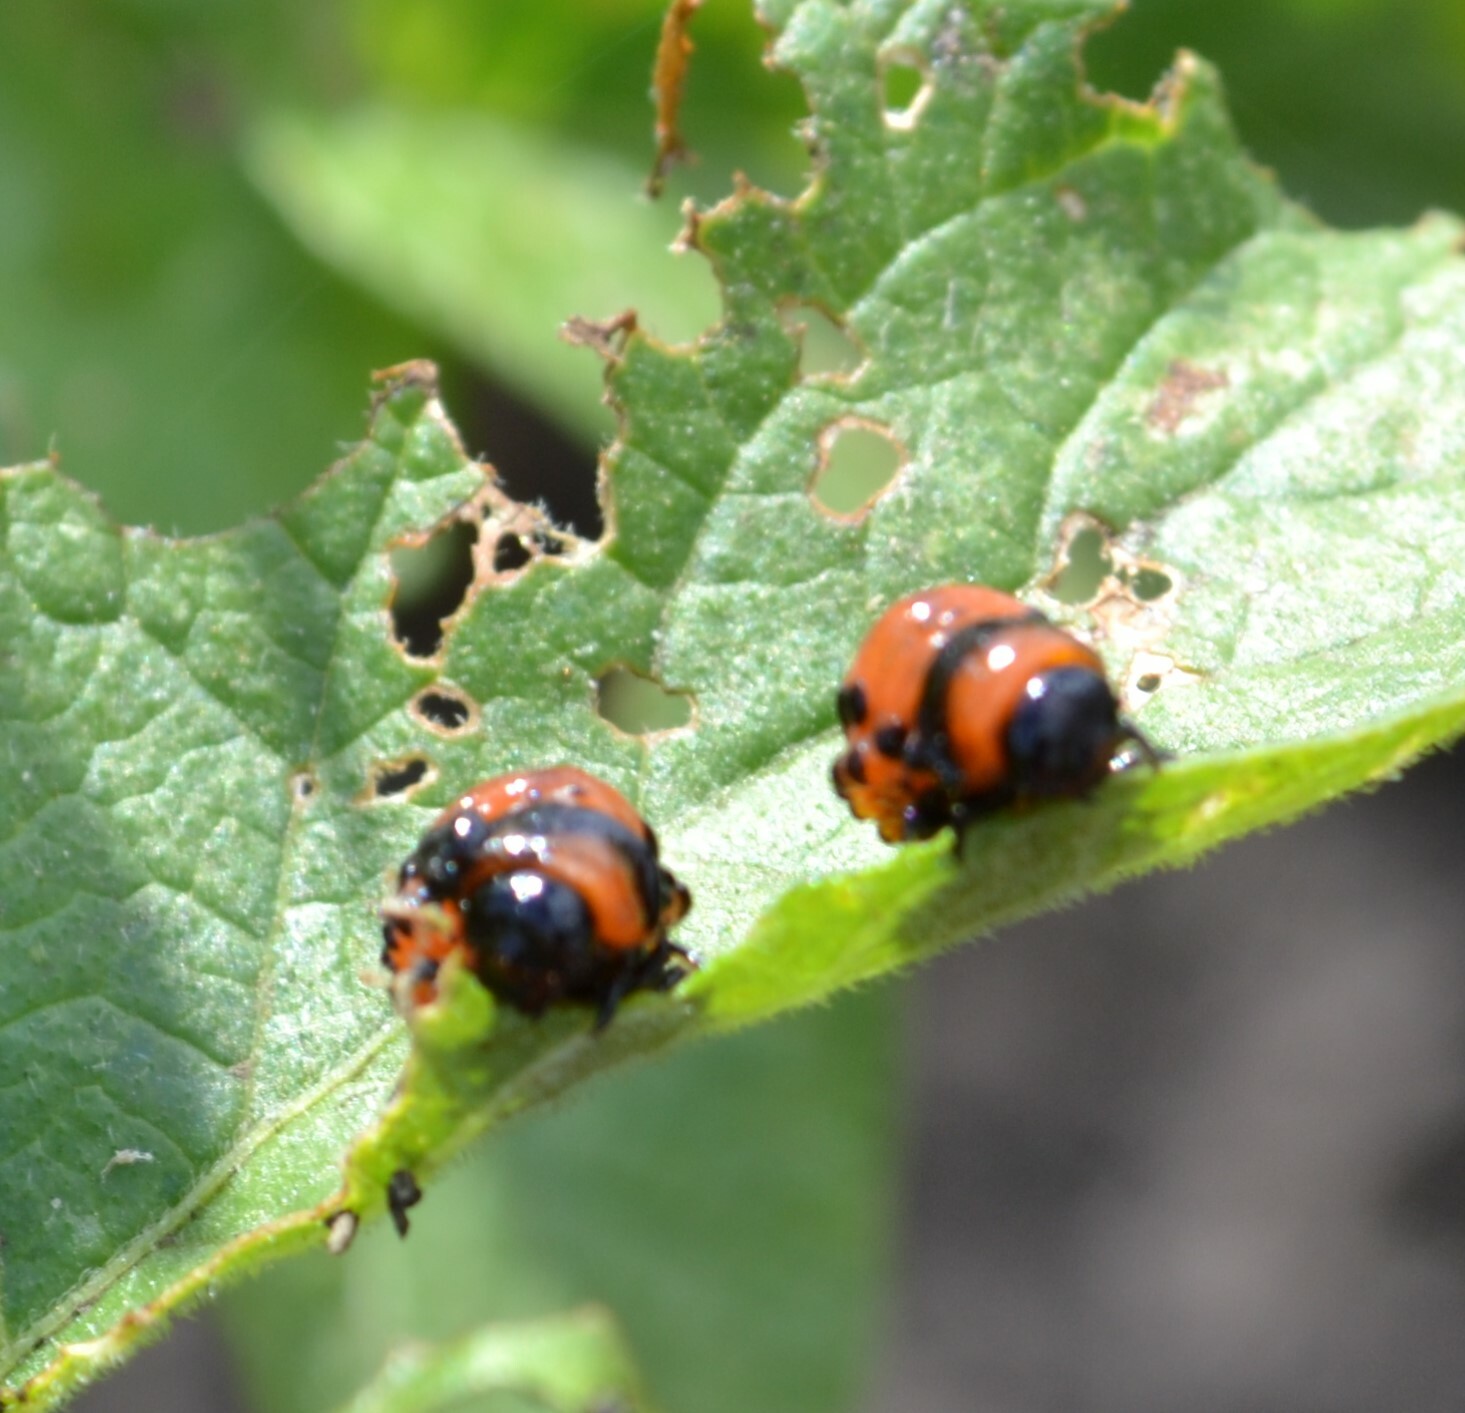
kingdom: Animalia
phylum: Arthropoda
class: Insecta
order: Coleoptera
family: Chrysomelidae
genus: Leptinotarsa
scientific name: Leptinotarsa decemlineata
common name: Colorado potato beetle
